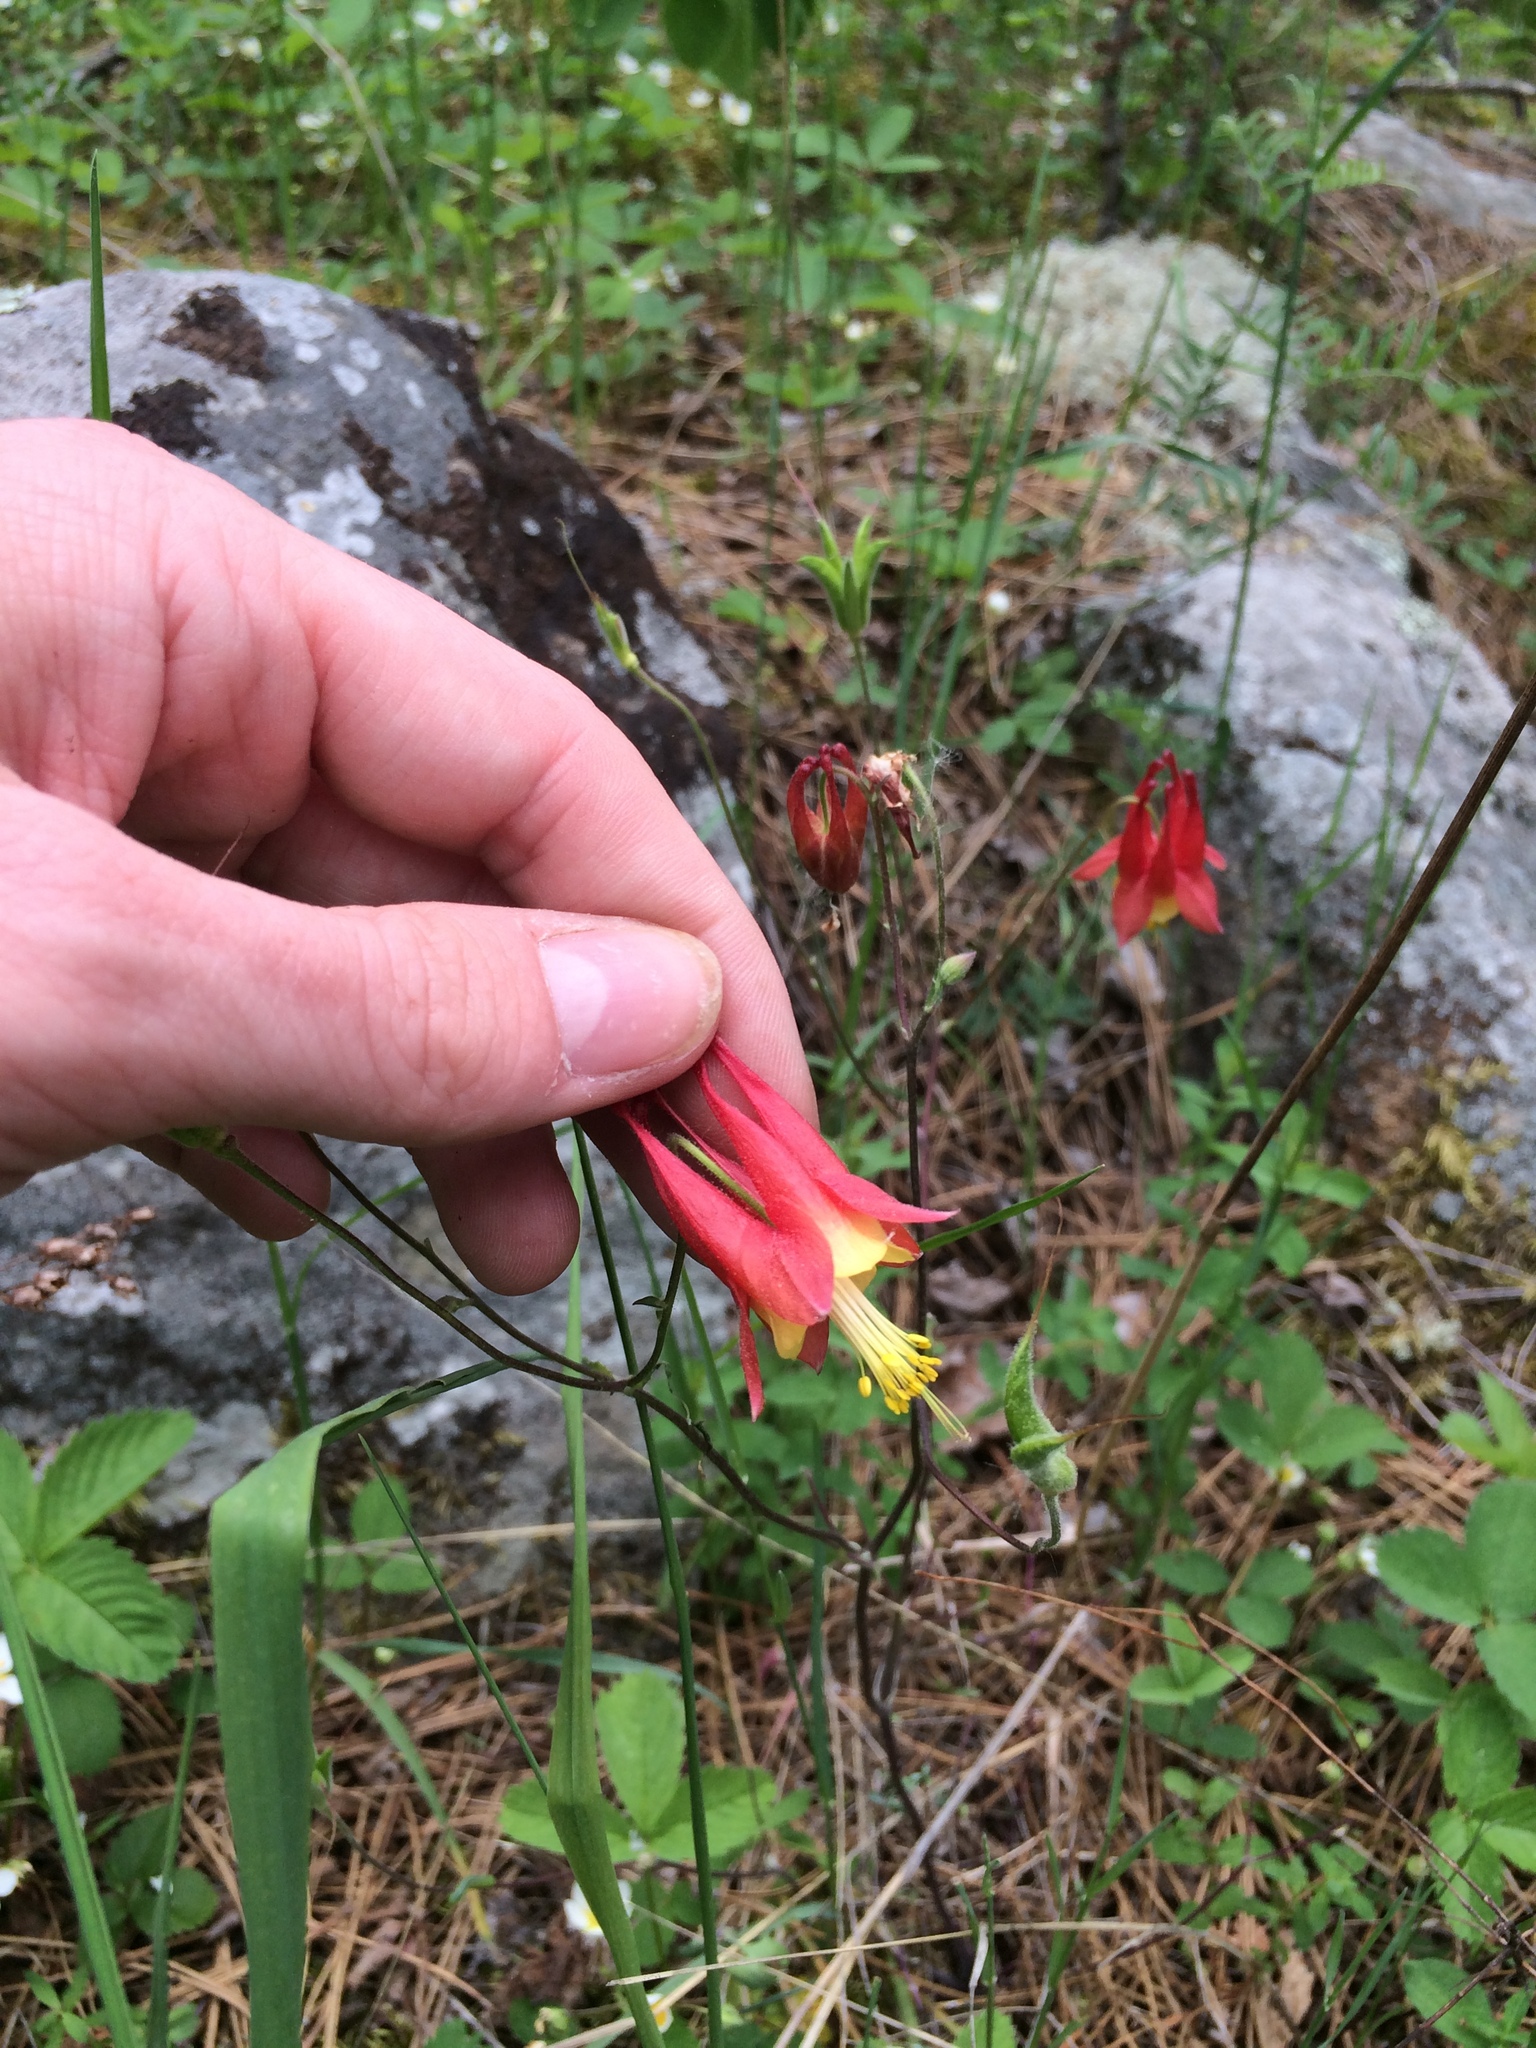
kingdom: Plantae
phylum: Tracheophyta
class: Magnoliopsida
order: Ranunculales
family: Ranunculaceae
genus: Aquilegia
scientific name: Aquilegia canadensis
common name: American columbine
